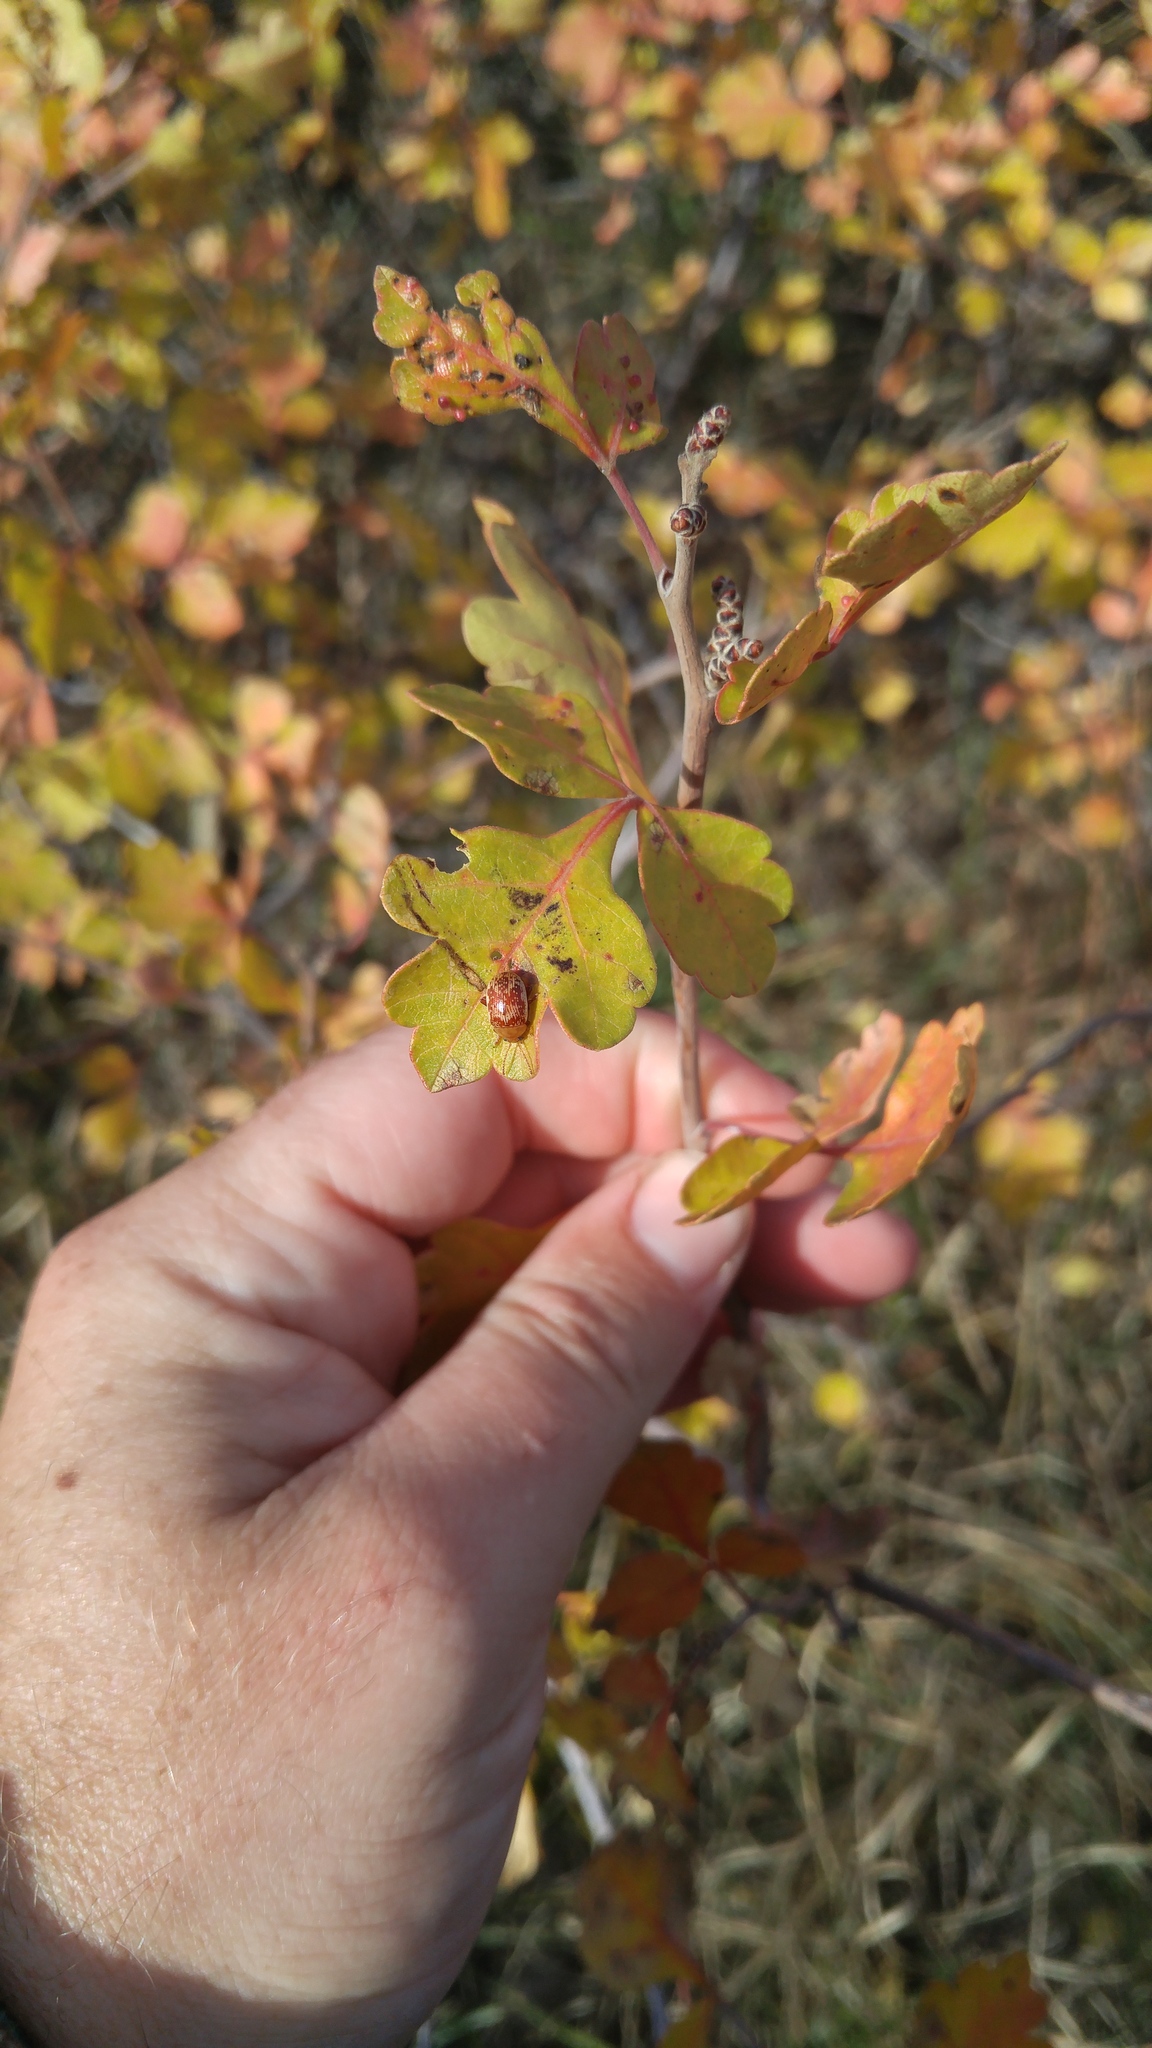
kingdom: Animalia
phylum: Arthropoda
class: Insecta
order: Coleoptera
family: Chrysomelidae
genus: Blepharida
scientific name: Blepharida rhois
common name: Sumac flea beetle
